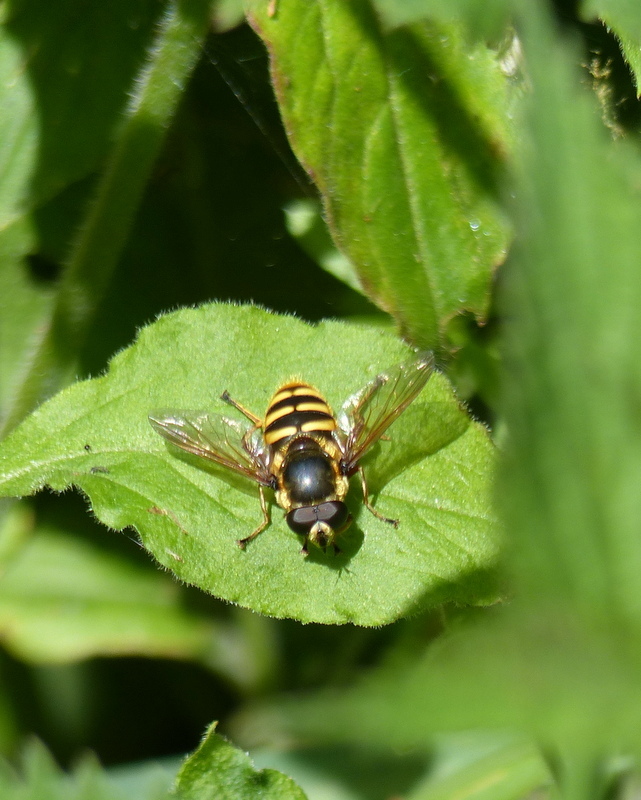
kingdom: Animalia
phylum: Arthropoda
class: Insecta
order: Diptera
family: Syrphidae
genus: Sericomyia
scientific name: Sericomyia silentis
